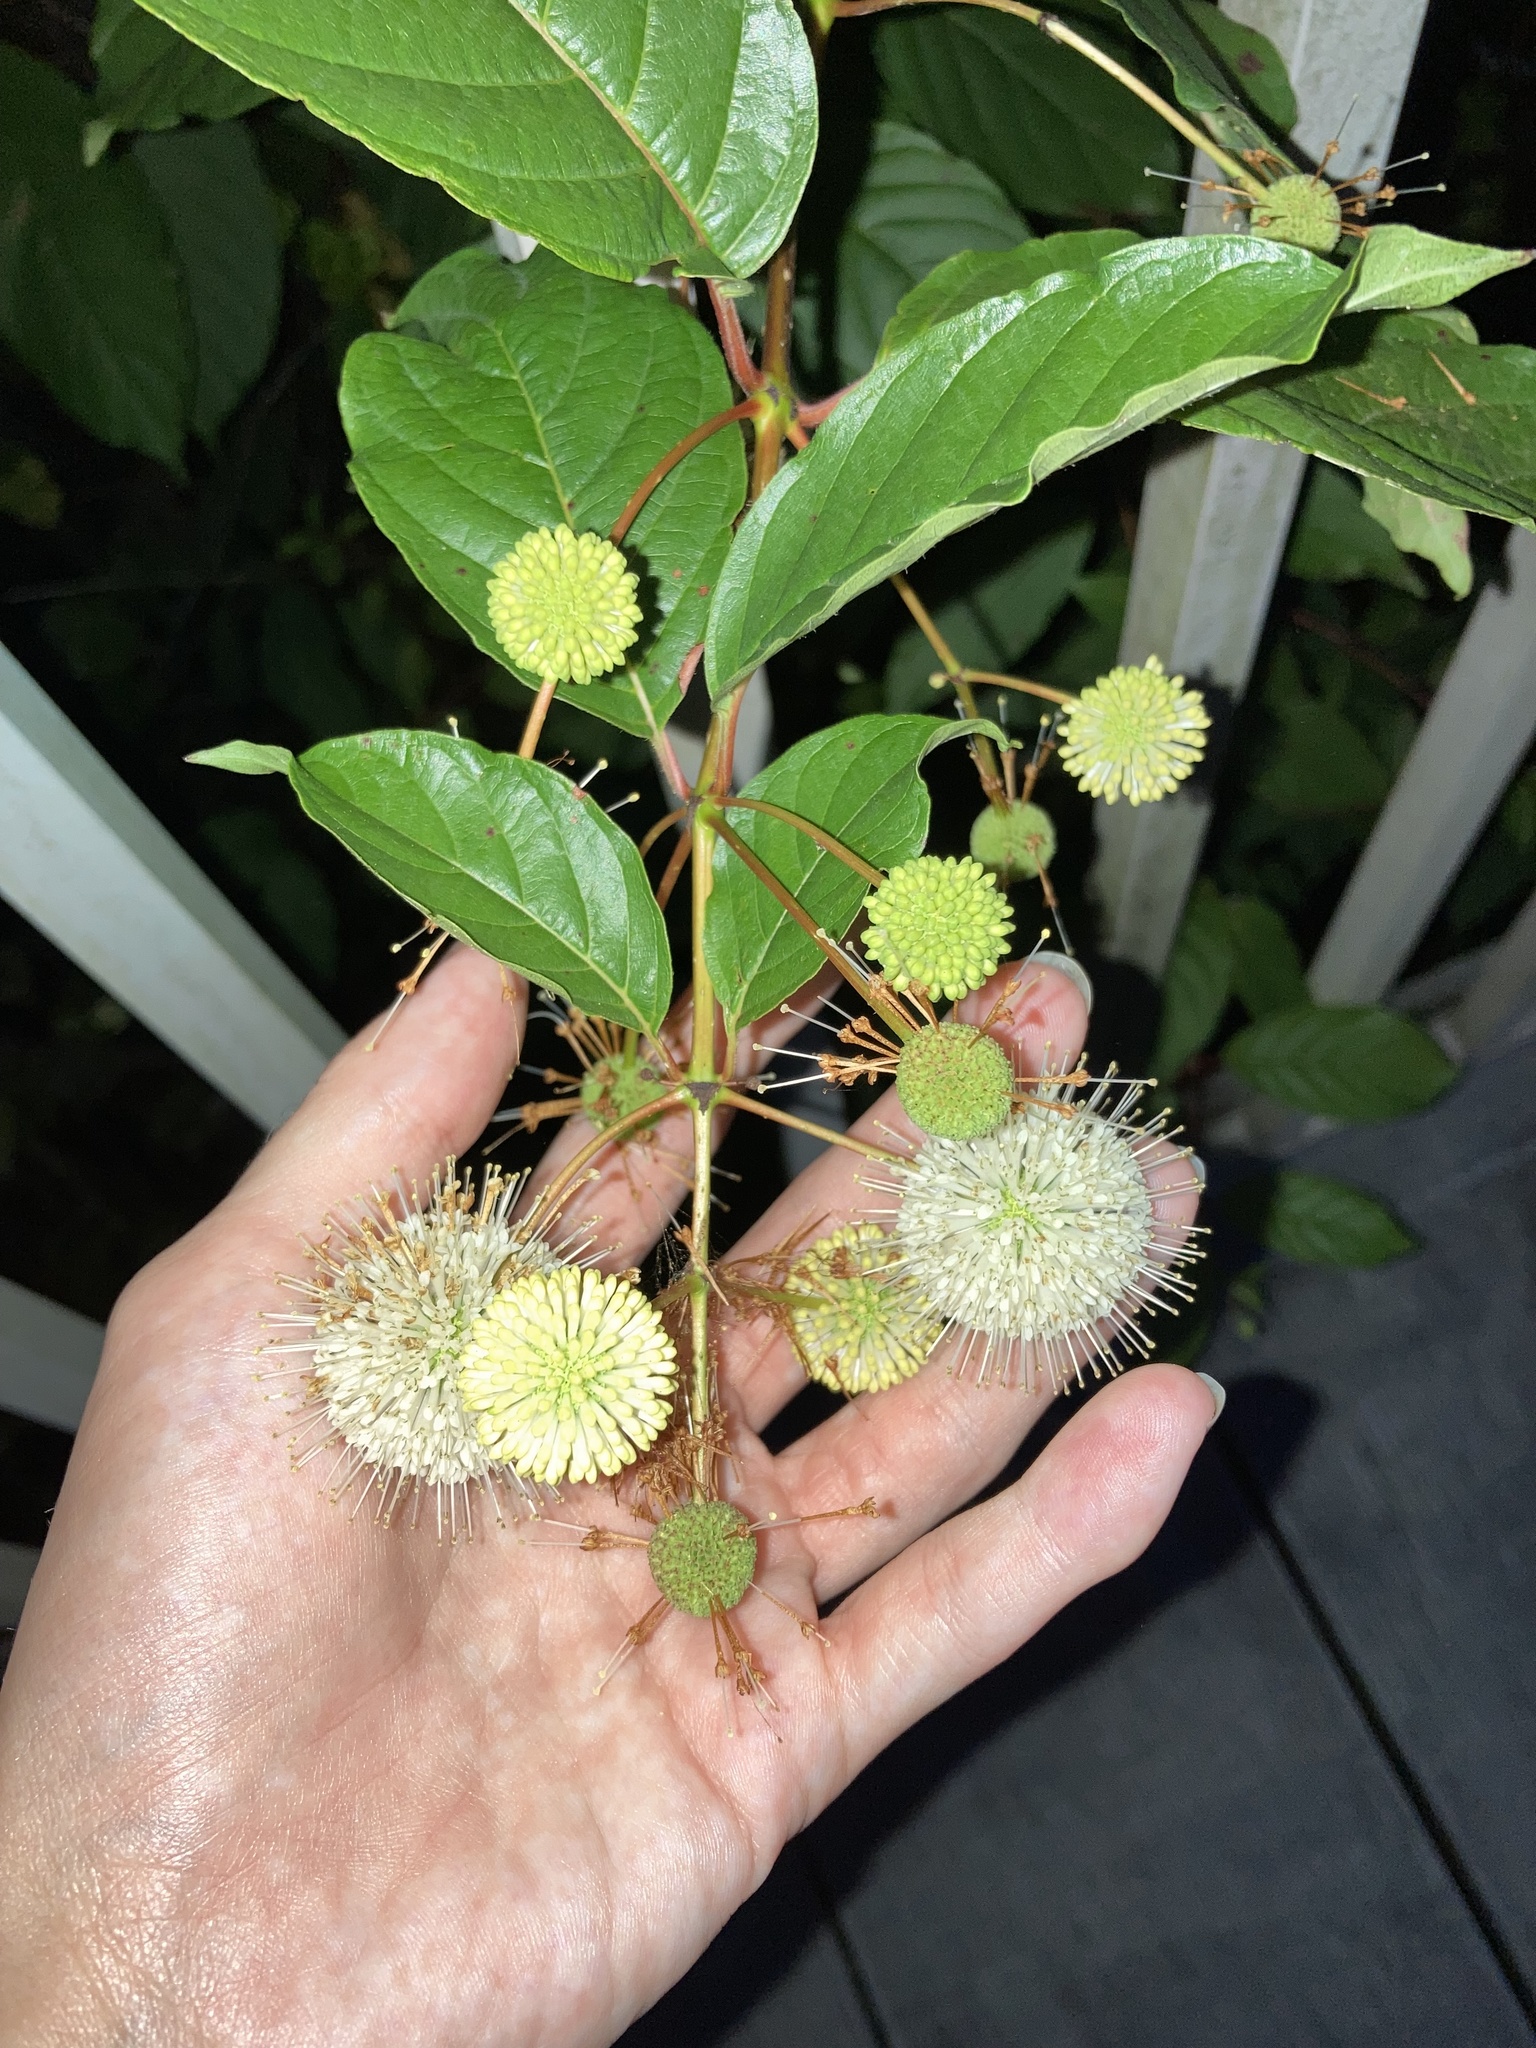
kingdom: Plantae
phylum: Tracheophyta
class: Magnoliopsida
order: Gentianales
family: Rubiaceae
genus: Cephalanthus
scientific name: Cephalanthus occidentalis
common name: Button-willow
